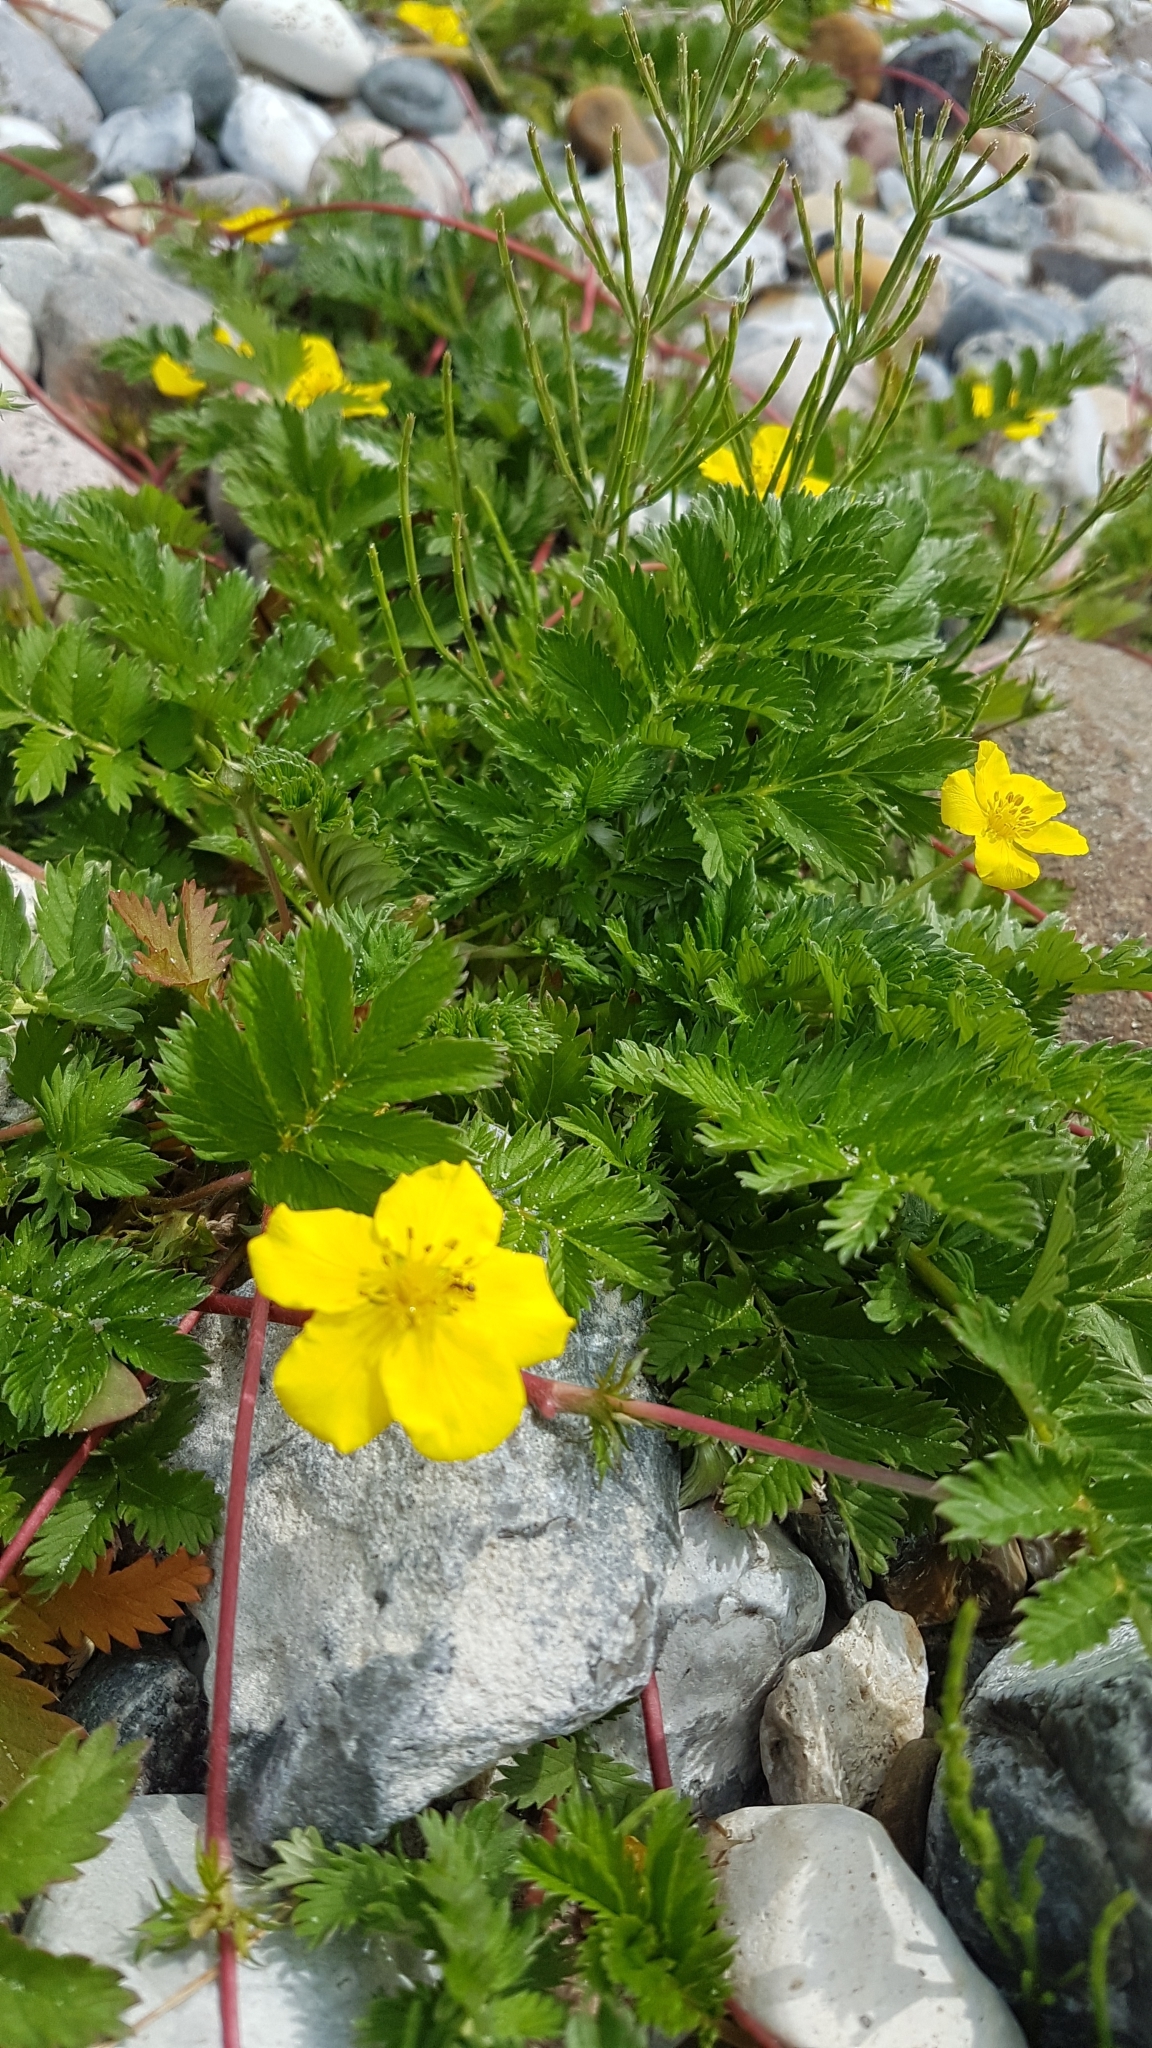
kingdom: Plantae
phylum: Tracheophyta
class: Magnoliopsida
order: Rosales
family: Rosaceae
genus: Argentina
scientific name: Argentina anserina
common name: Common silverweed
